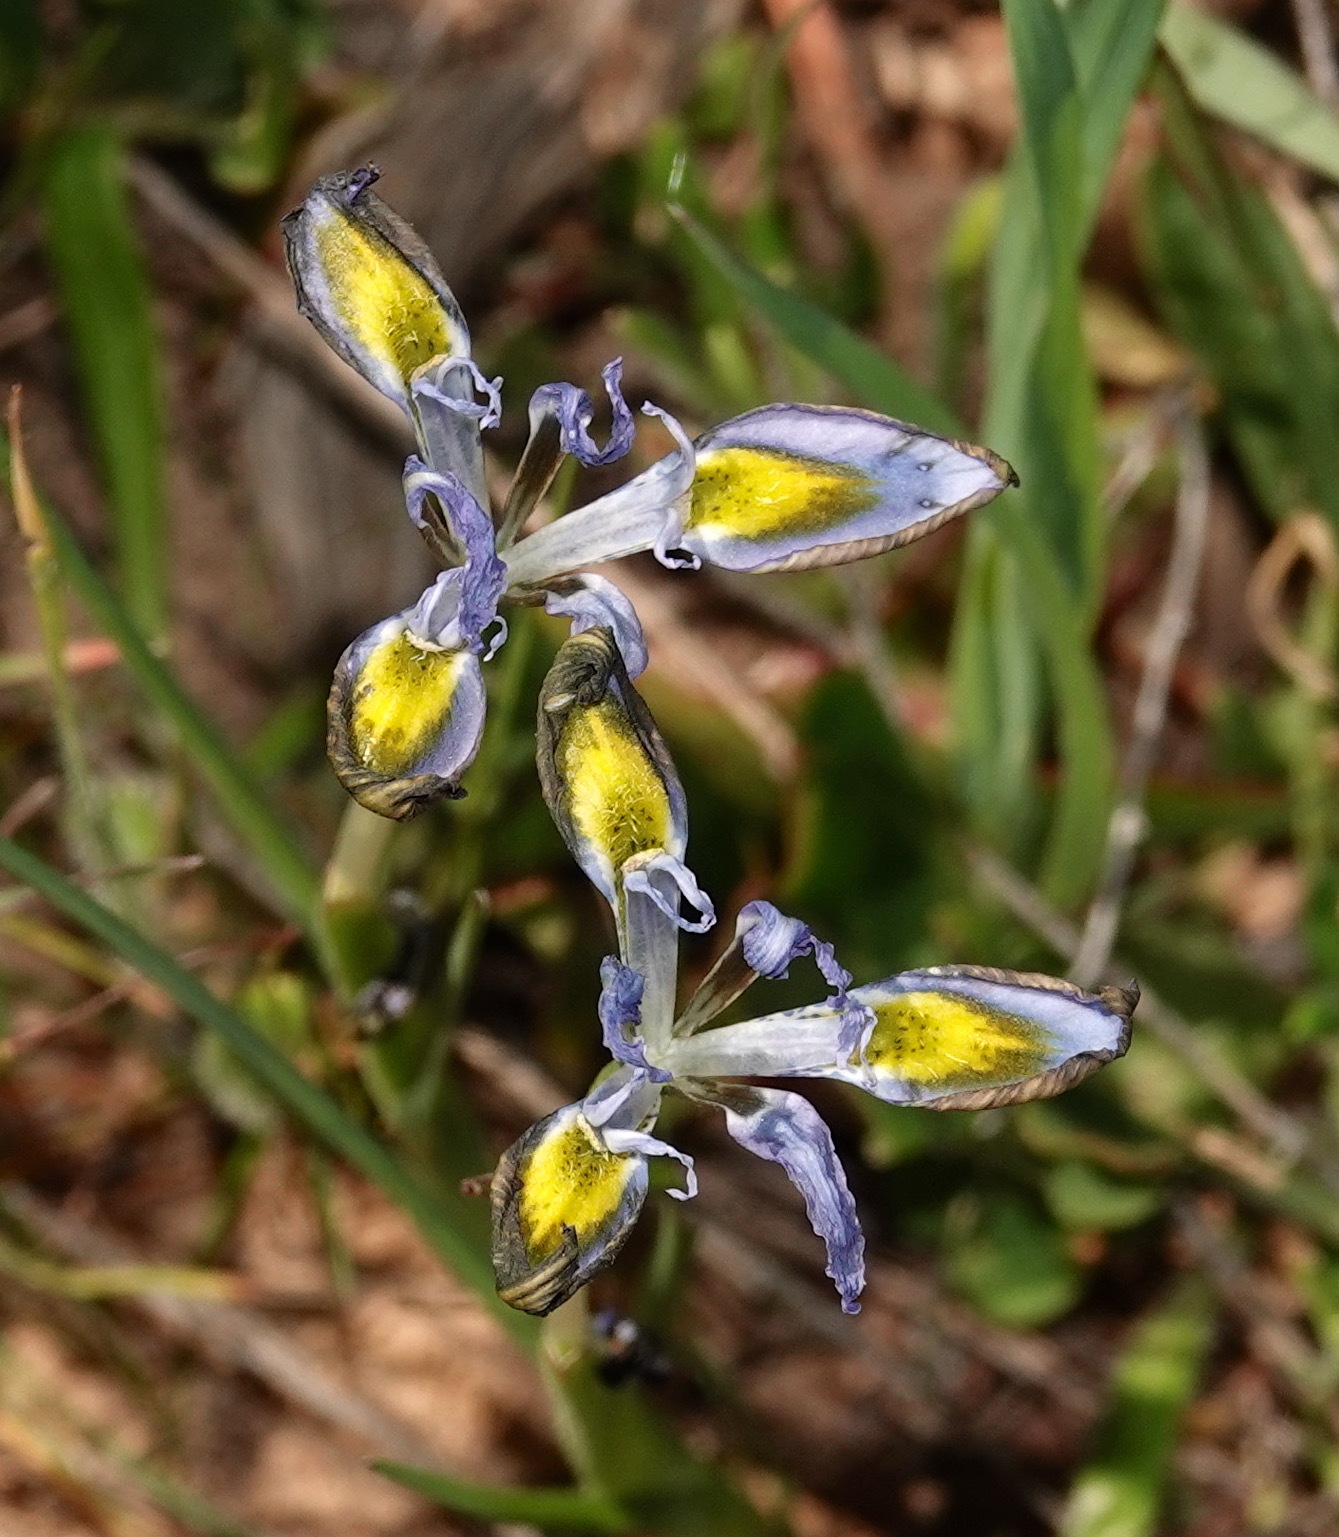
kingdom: Plantae
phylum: Tracheophyta
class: Liliopsida
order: Asparagales
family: Iridaceae
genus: Moraea
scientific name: Moraea ciliata
